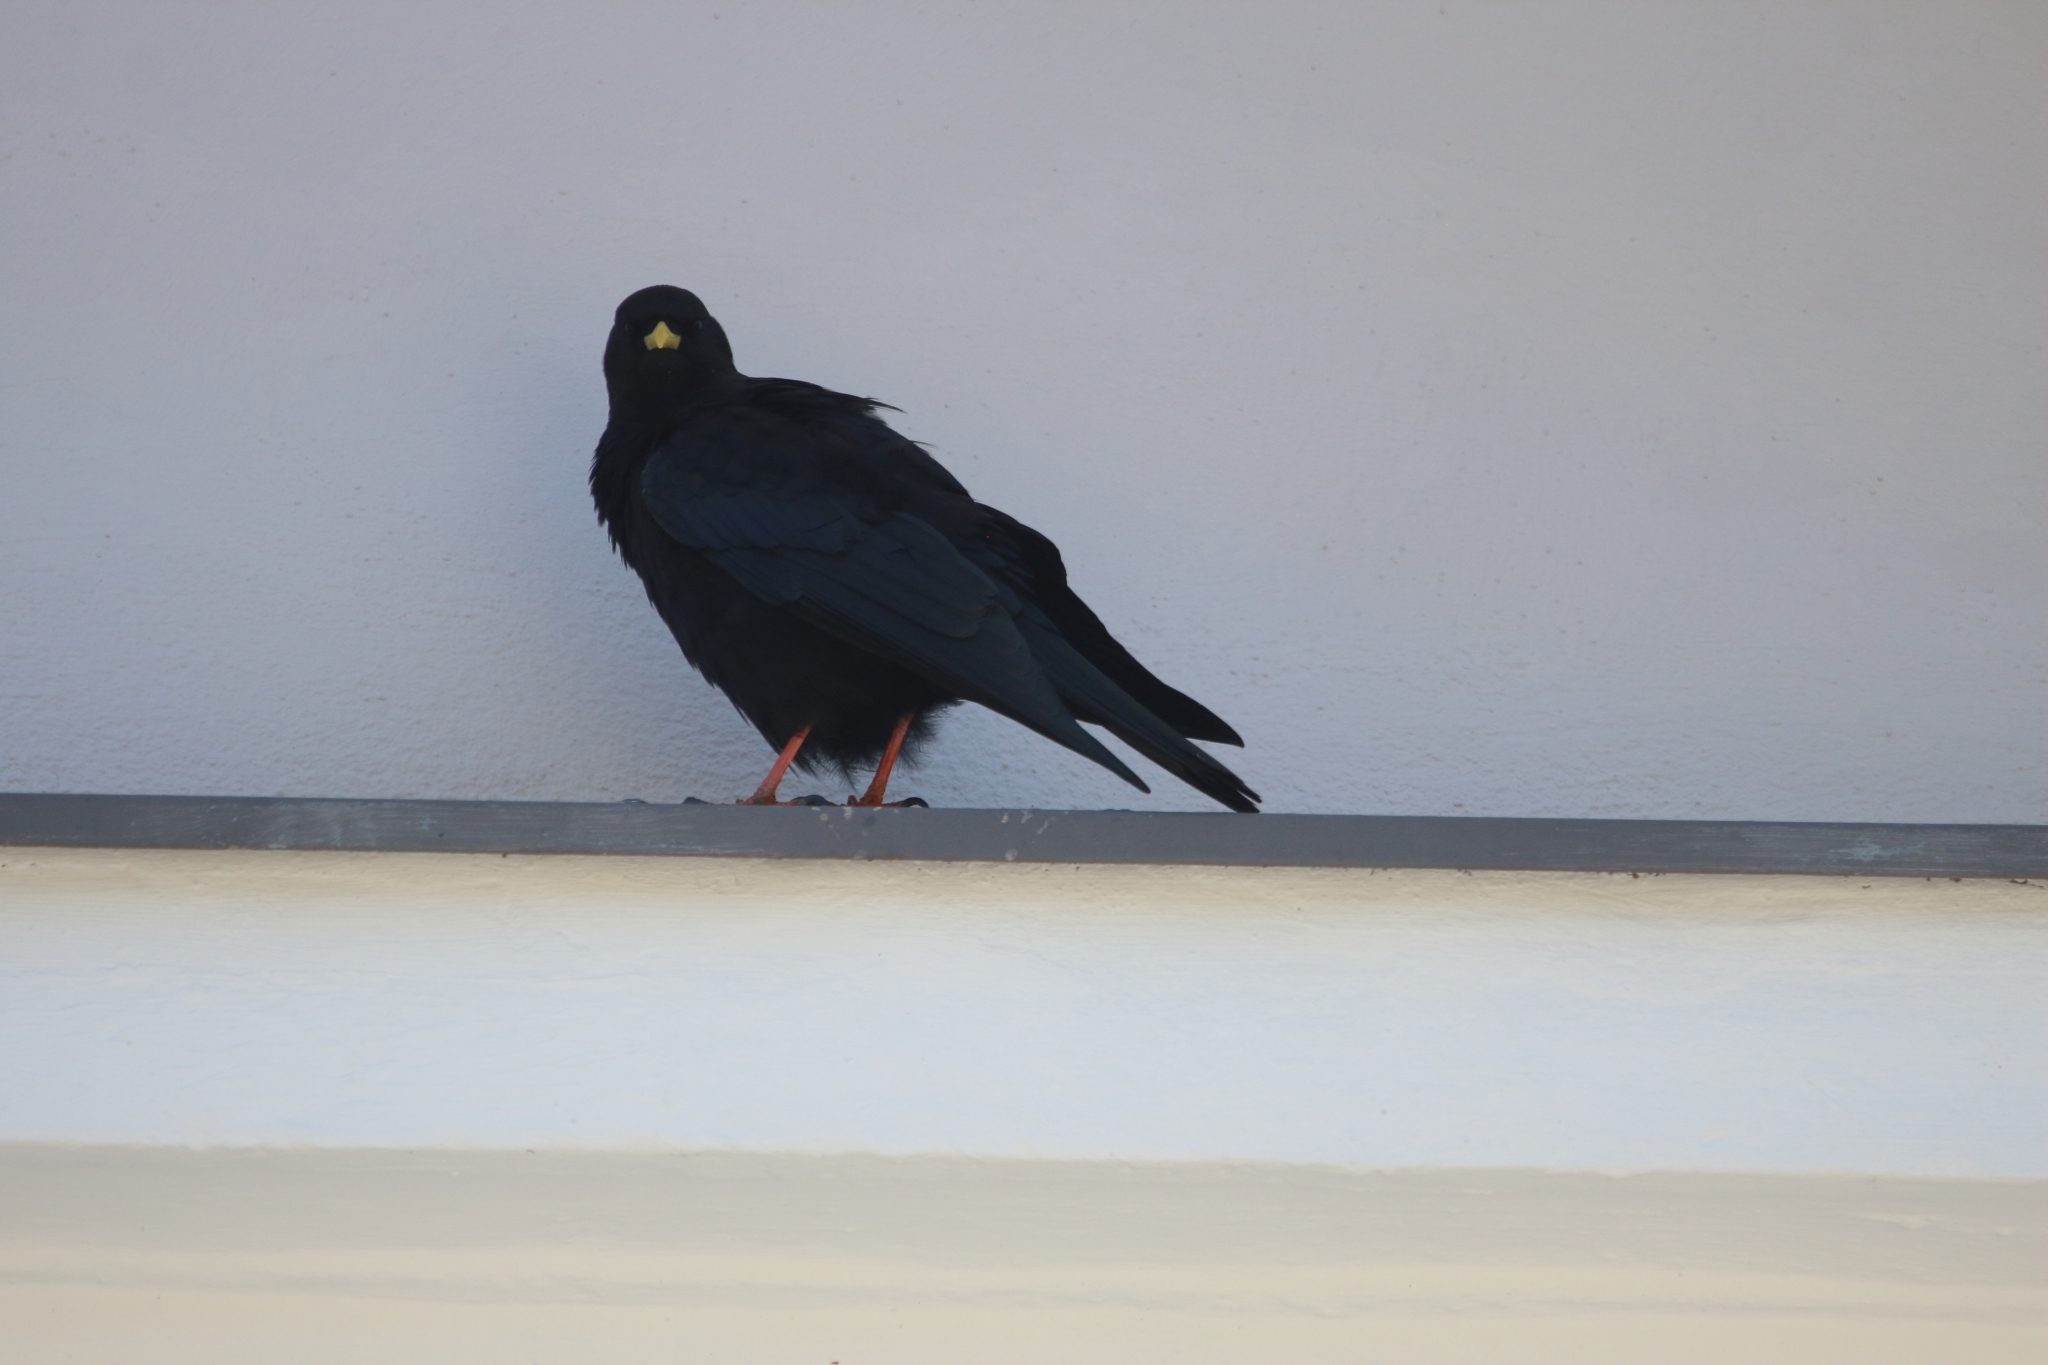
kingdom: Animalia
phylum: Chordata
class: Aves
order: Passeriformes
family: Corvidae
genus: Pyrrhocorax
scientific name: Pyrrhocorax graculus
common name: Alpine chough
